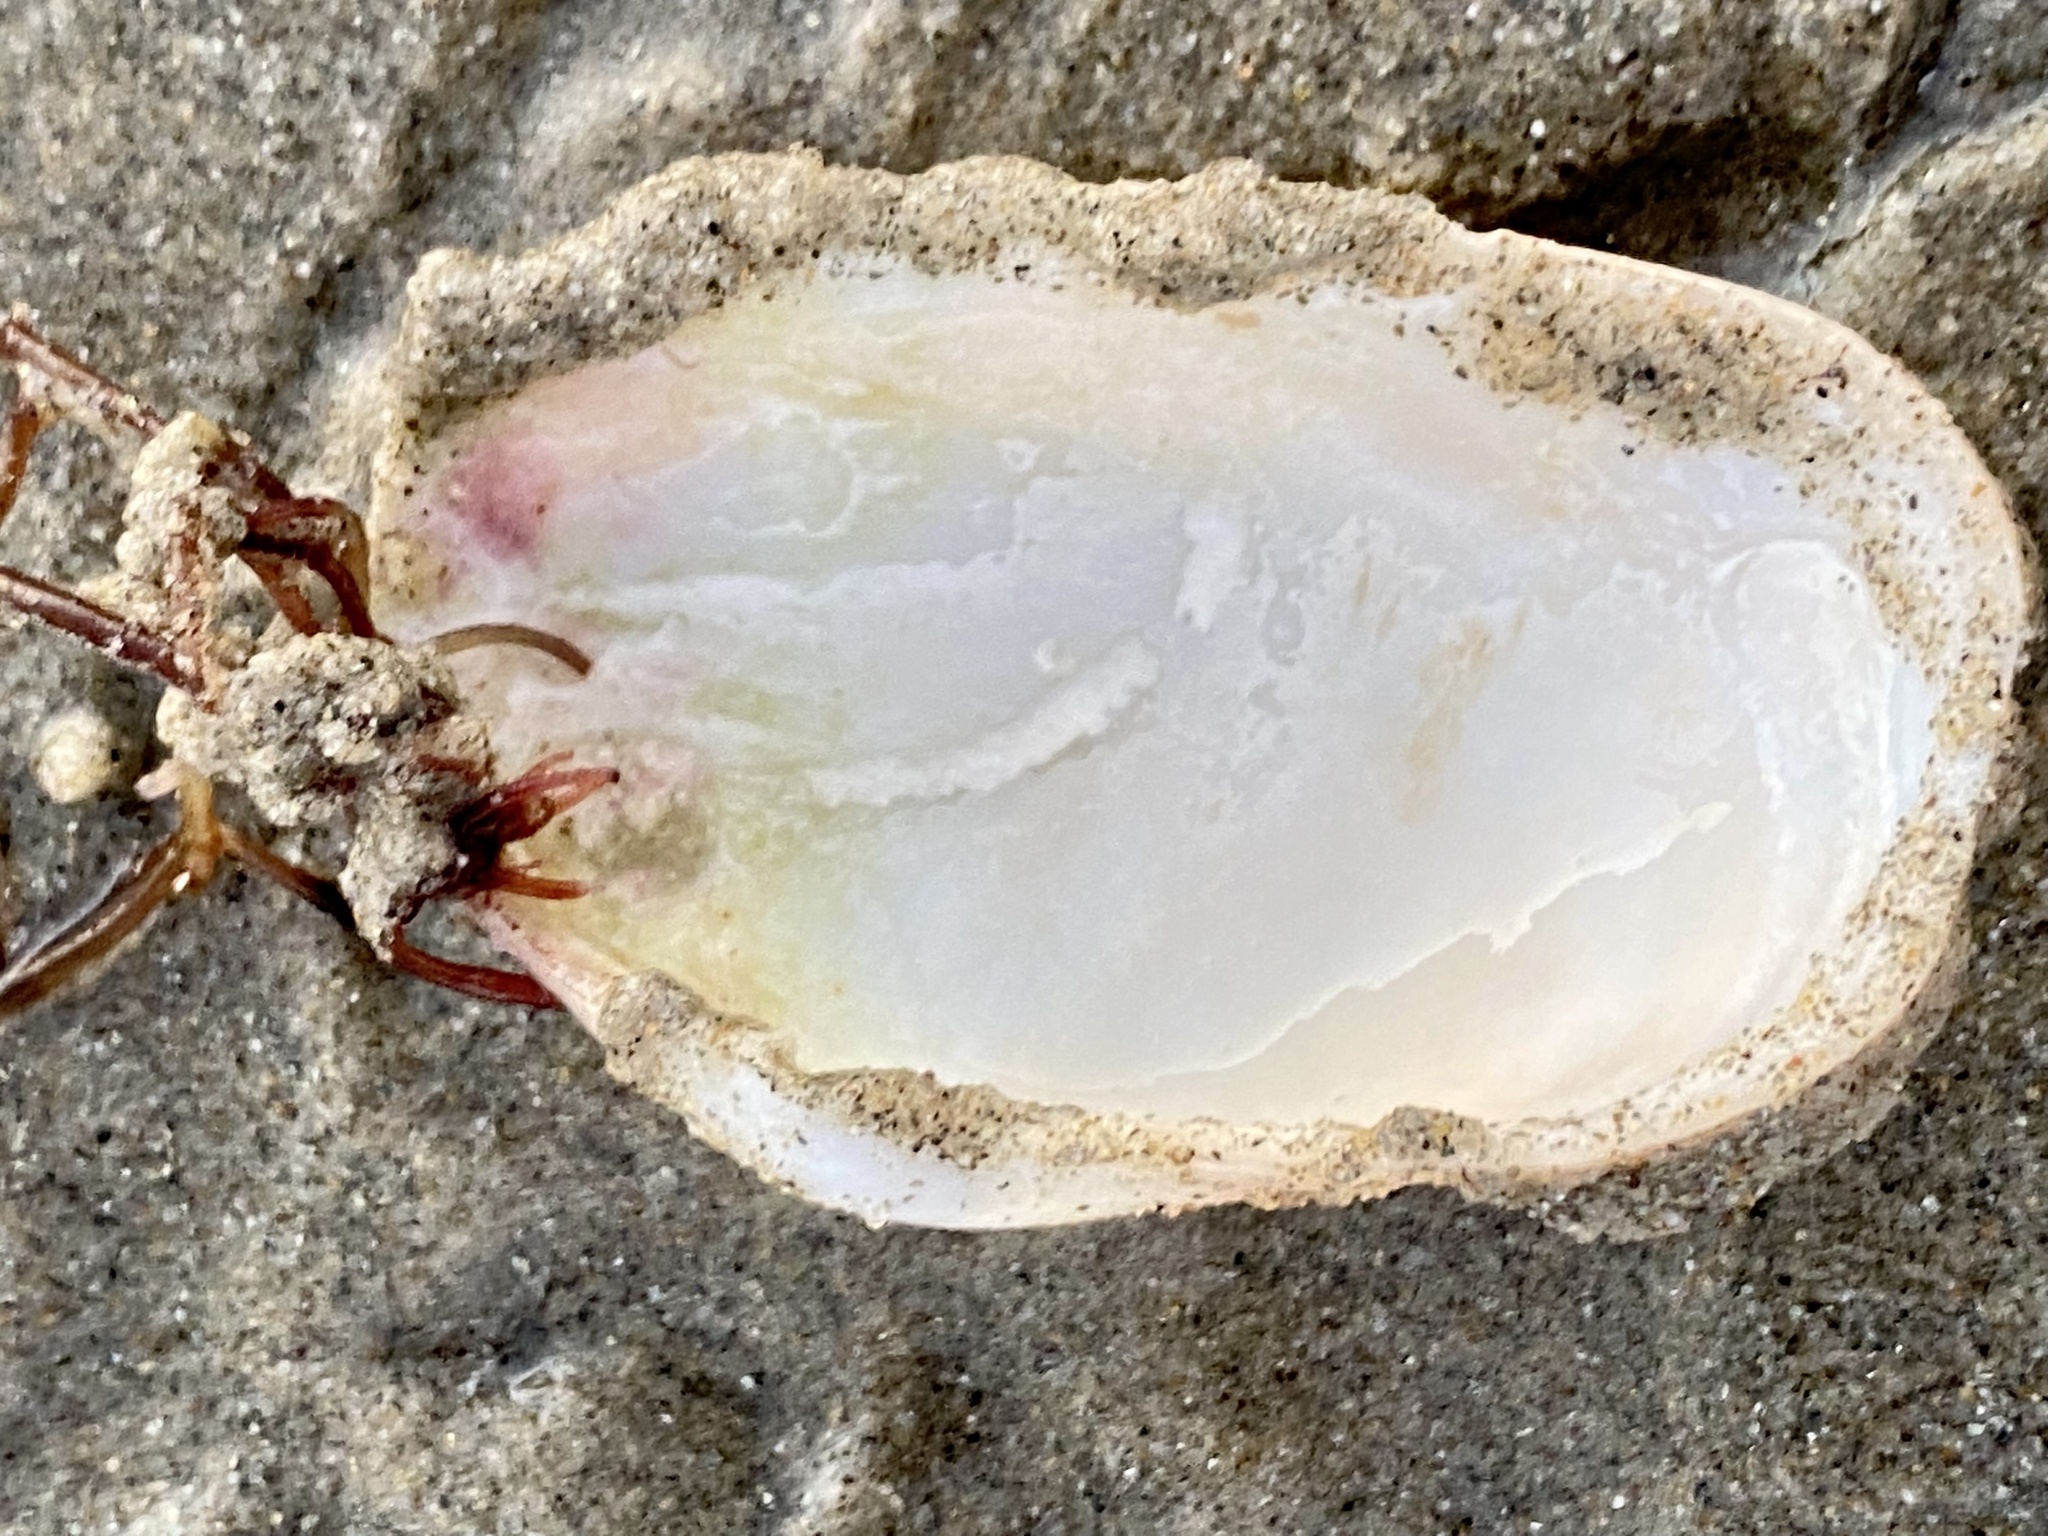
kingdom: Animalia
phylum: Mollusca
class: Bivalvia
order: Myida
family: Myidae
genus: Platyodon
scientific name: Platyodon cancellatus
